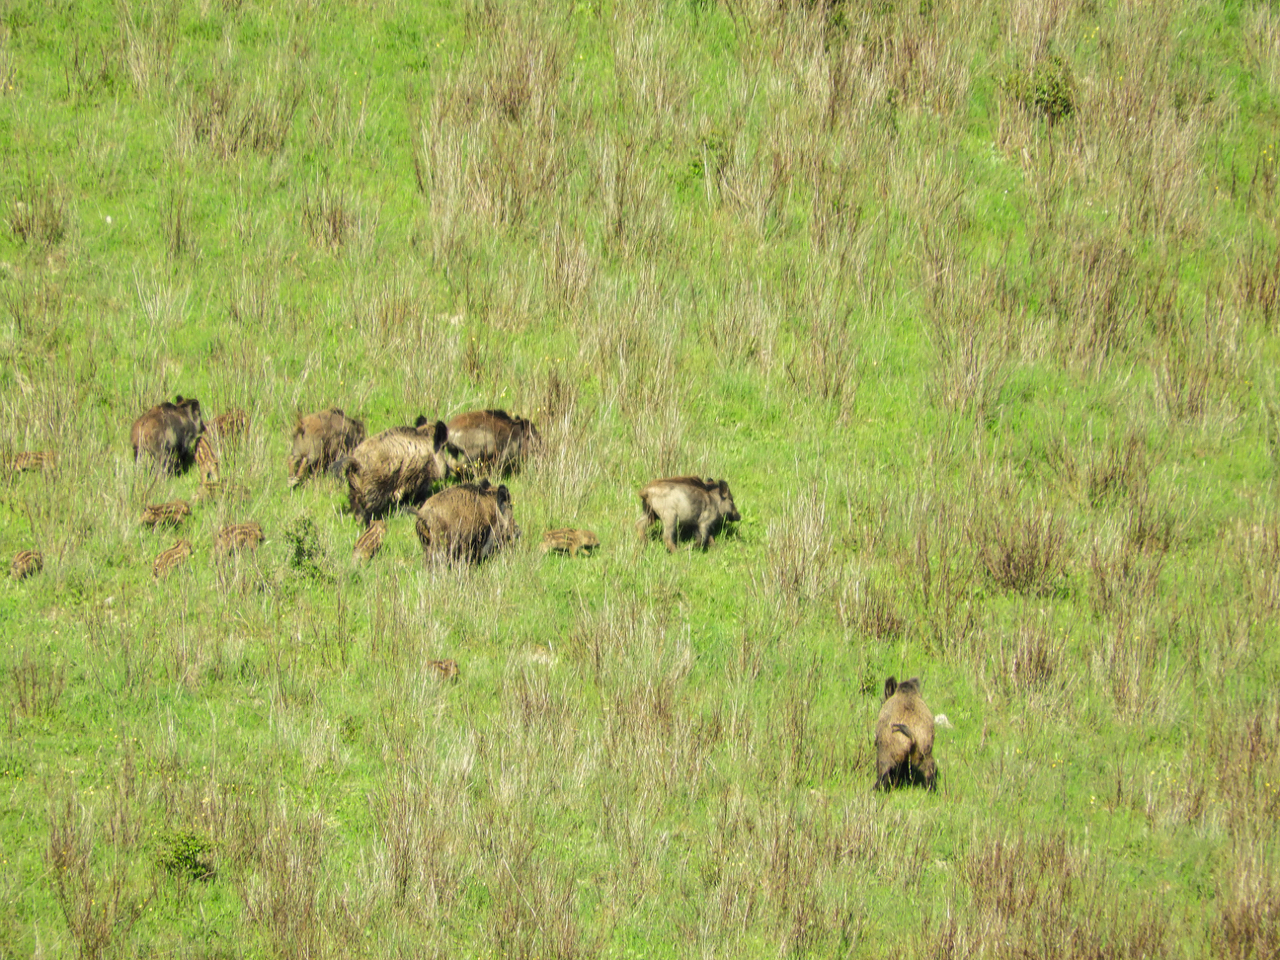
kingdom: Animalia
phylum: Chordata
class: Mammalia
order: Artiodactyla
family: Suidae
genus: Sus
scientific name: Sus scrofa
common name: Wild boar
